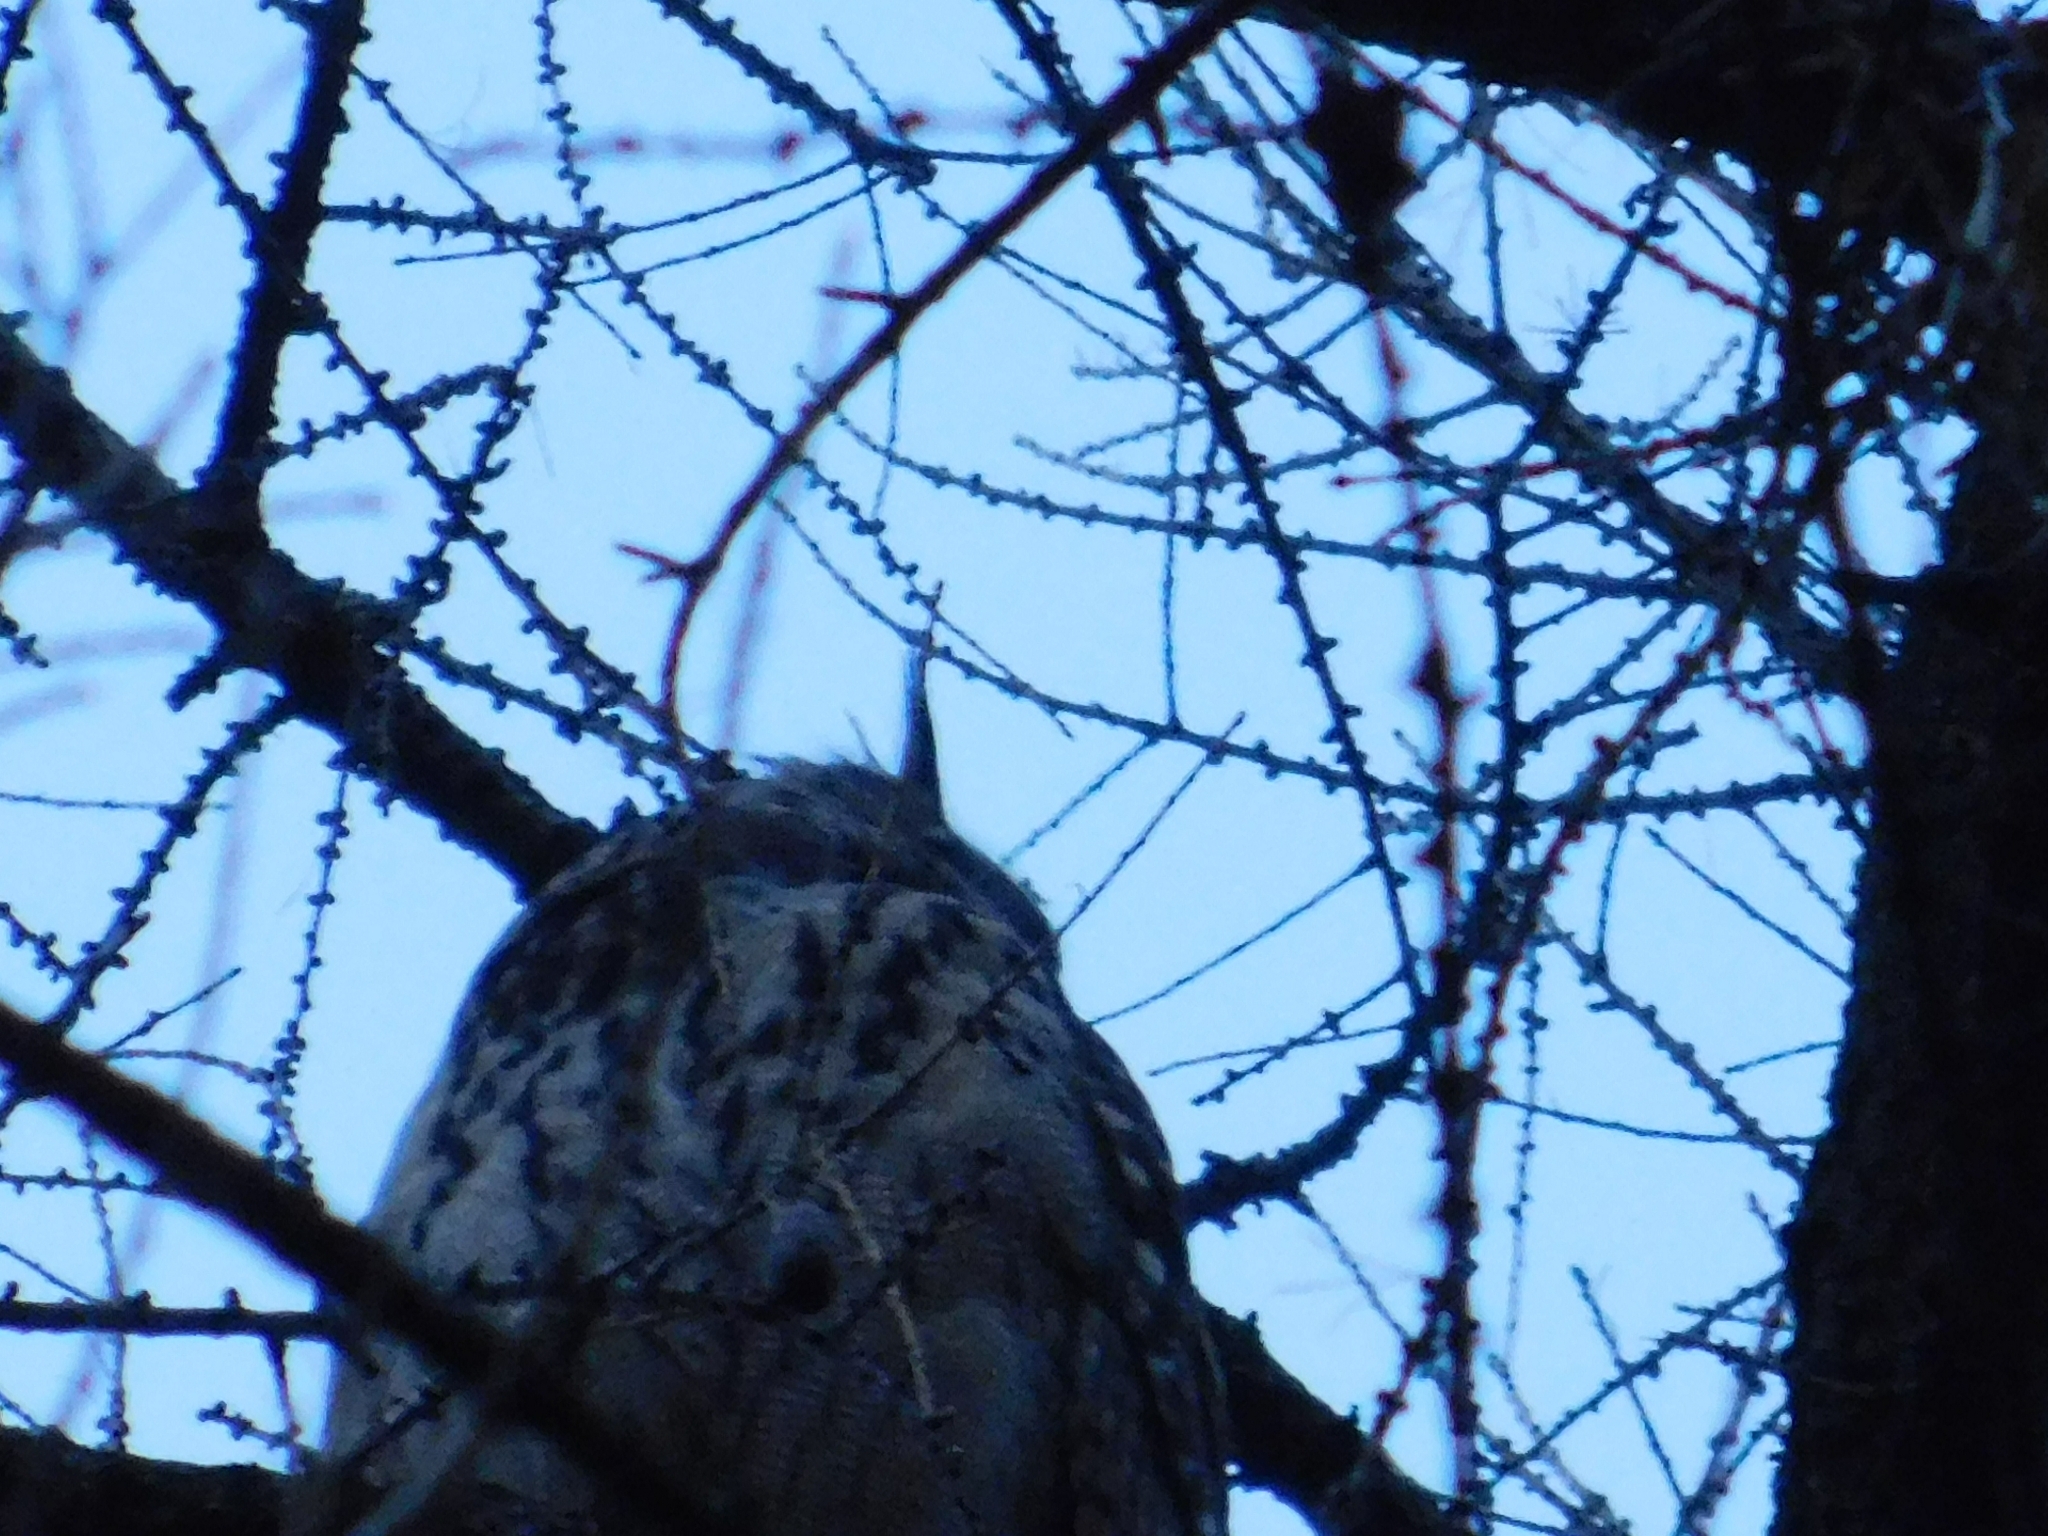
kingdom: Animalia
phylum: Chordata
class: Aves
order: Strigiformes
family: Strigidae
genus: Bubo
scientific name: Bubo bubo
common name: Eurasian eagle-owl
